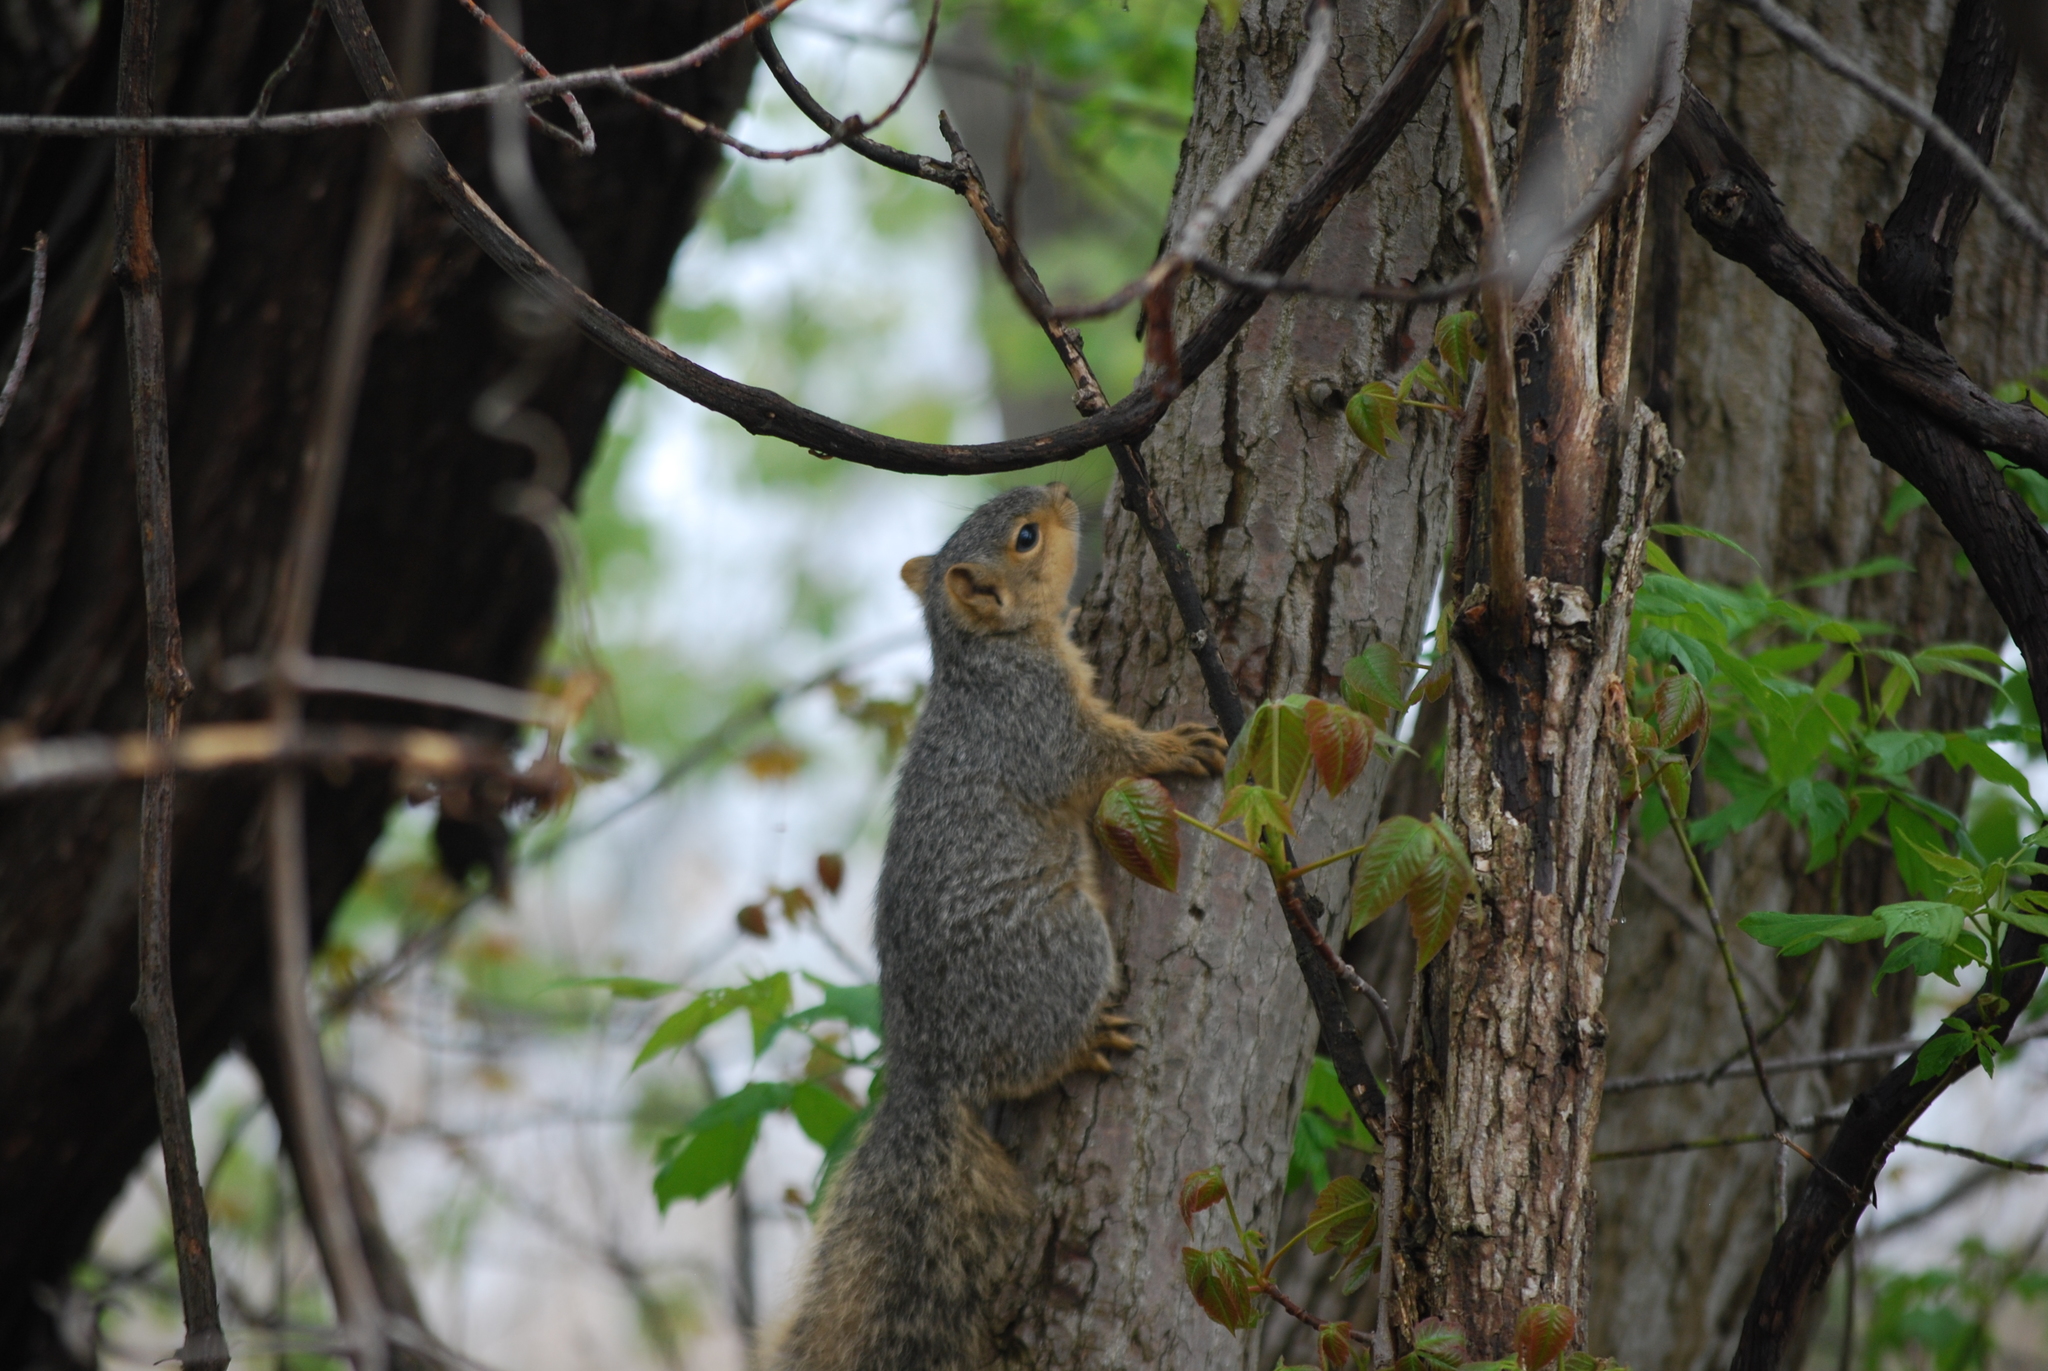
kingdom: Animalia
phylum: Chordata
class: Mammalia
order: Rodentia
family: Sciuridae
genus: Sciurus
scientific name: Sciurus niger
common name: Fox squirrel
